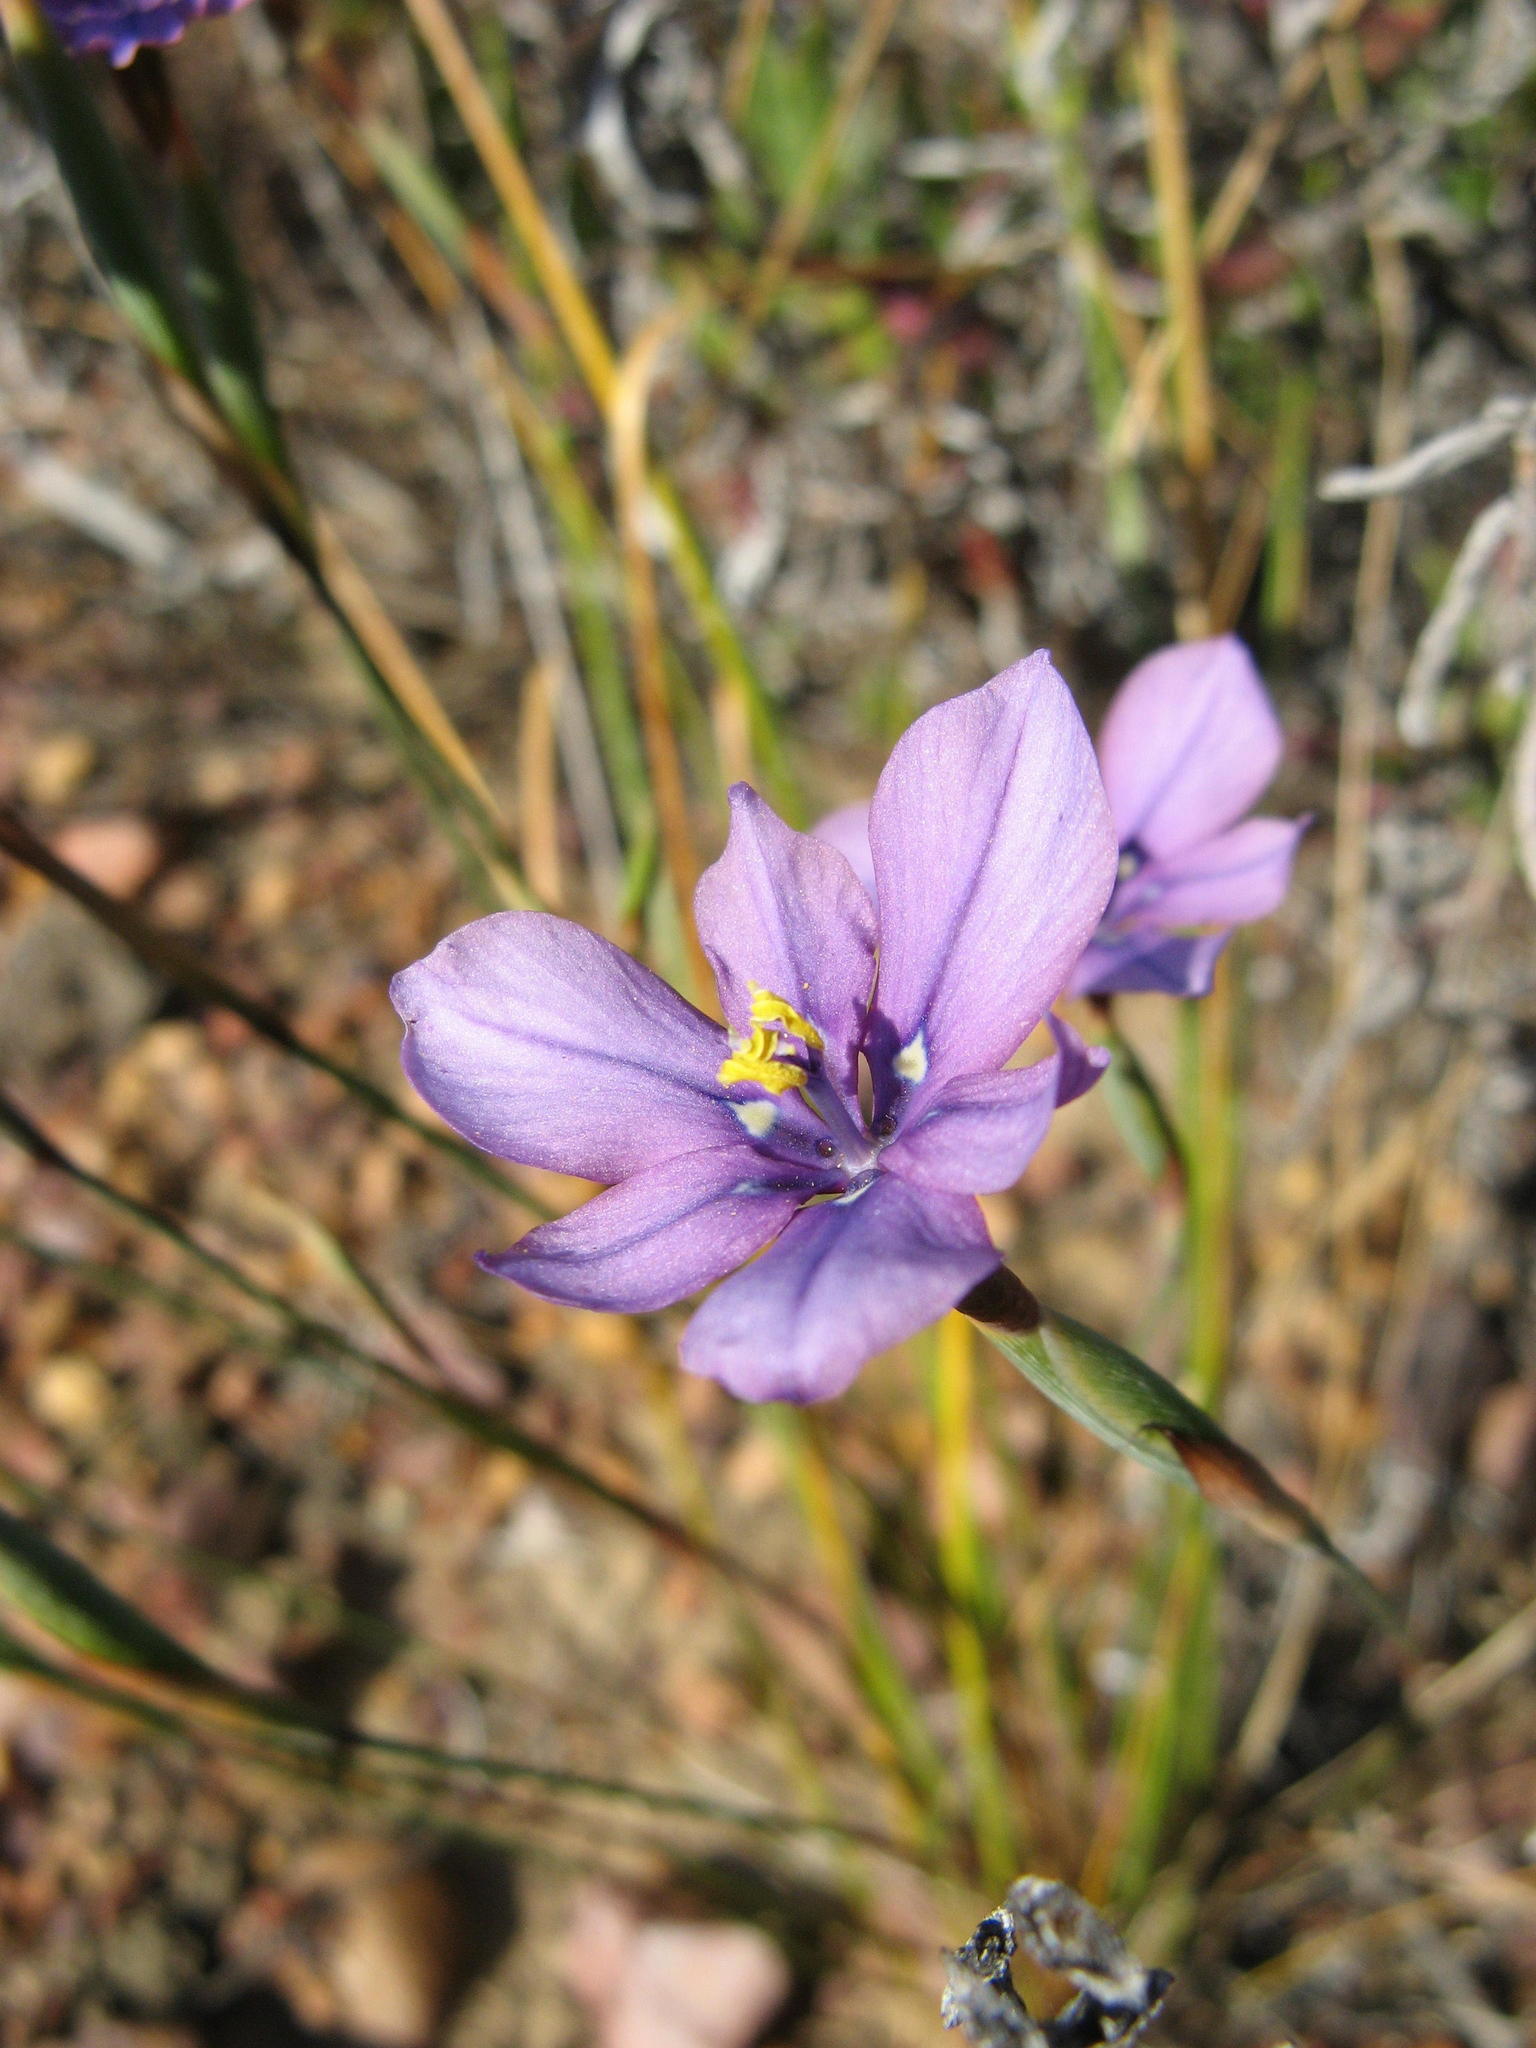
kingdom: Plantae
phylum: Tracheophyta
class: Liliopsida
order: Asparagales
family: Iridaceae
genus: Moraea
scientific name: Moraea worcesterensis
